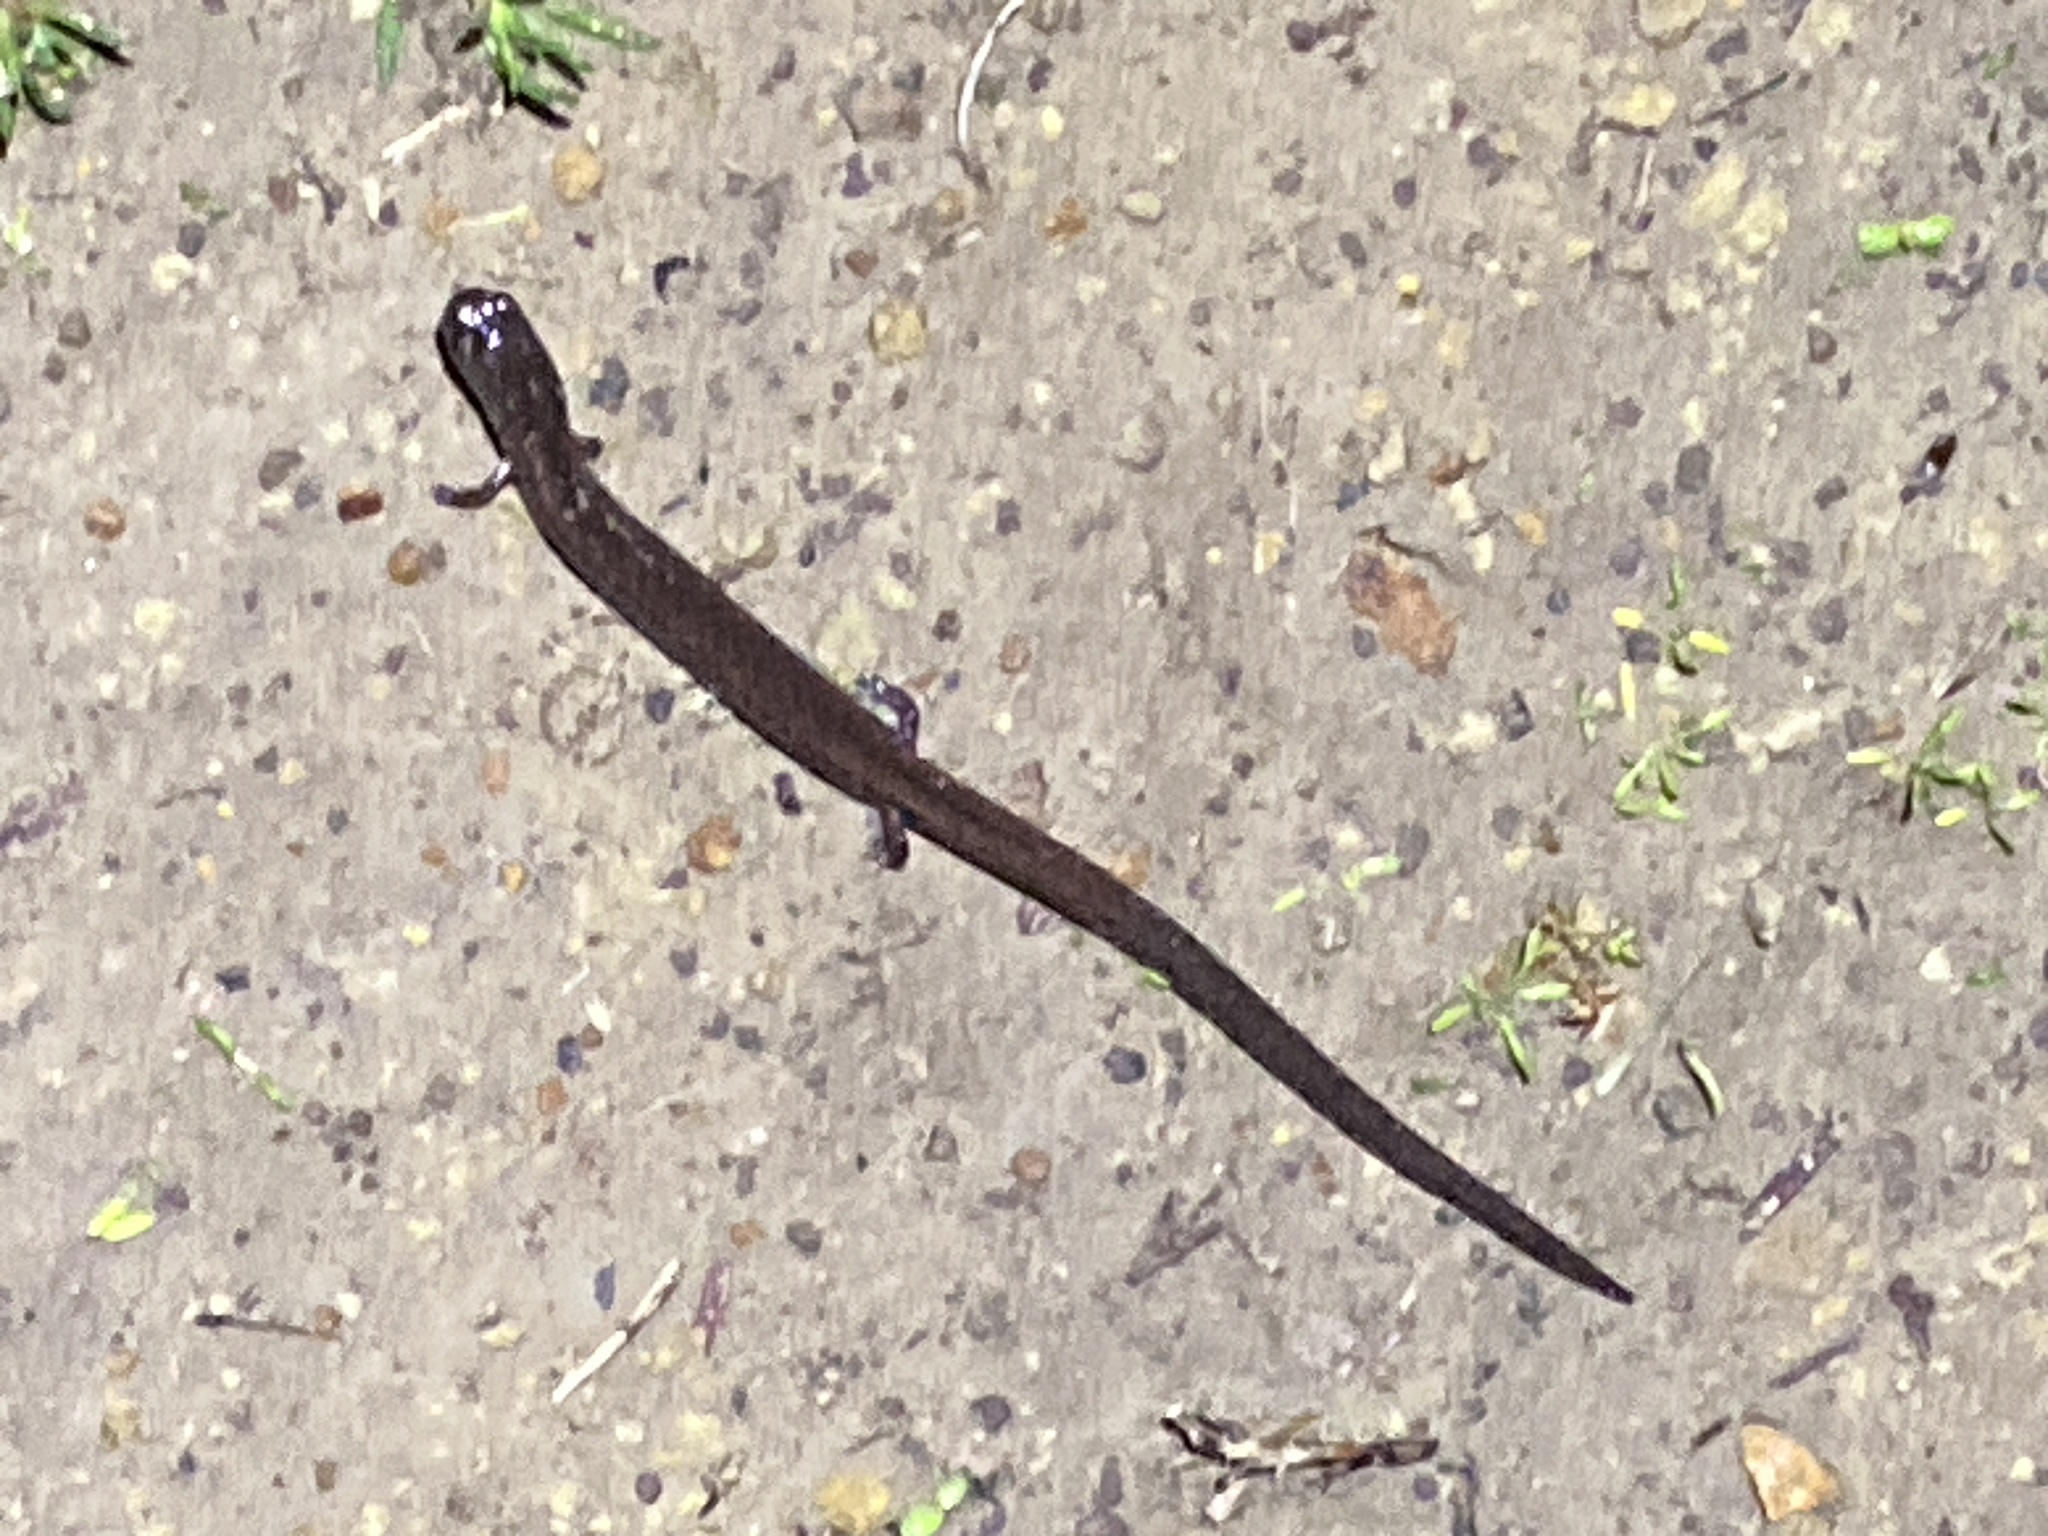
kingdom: Animalia
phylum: Chordata
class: Amphibia
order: Caudata
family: Plethodontidae
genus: Batrachoseps
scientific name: Batrachoseps attenuatus
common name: California slender salamander
